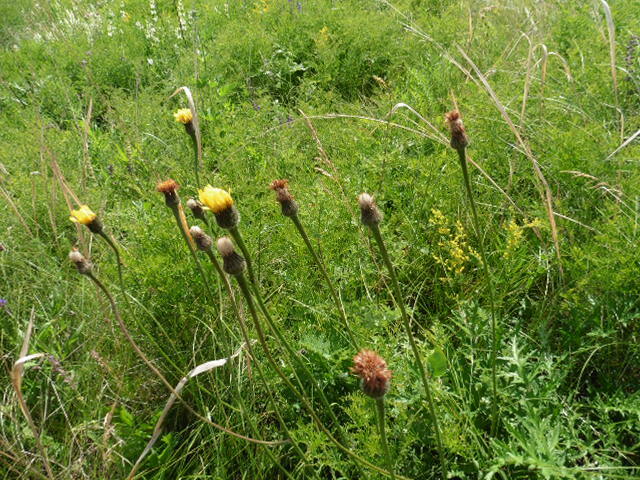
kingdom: Plantae
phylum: Tracheophyta
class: Magnoliopsida
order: Asterales
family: Asteraceae
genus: Trommsdorffia
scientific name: Trommsdorffia maculata
